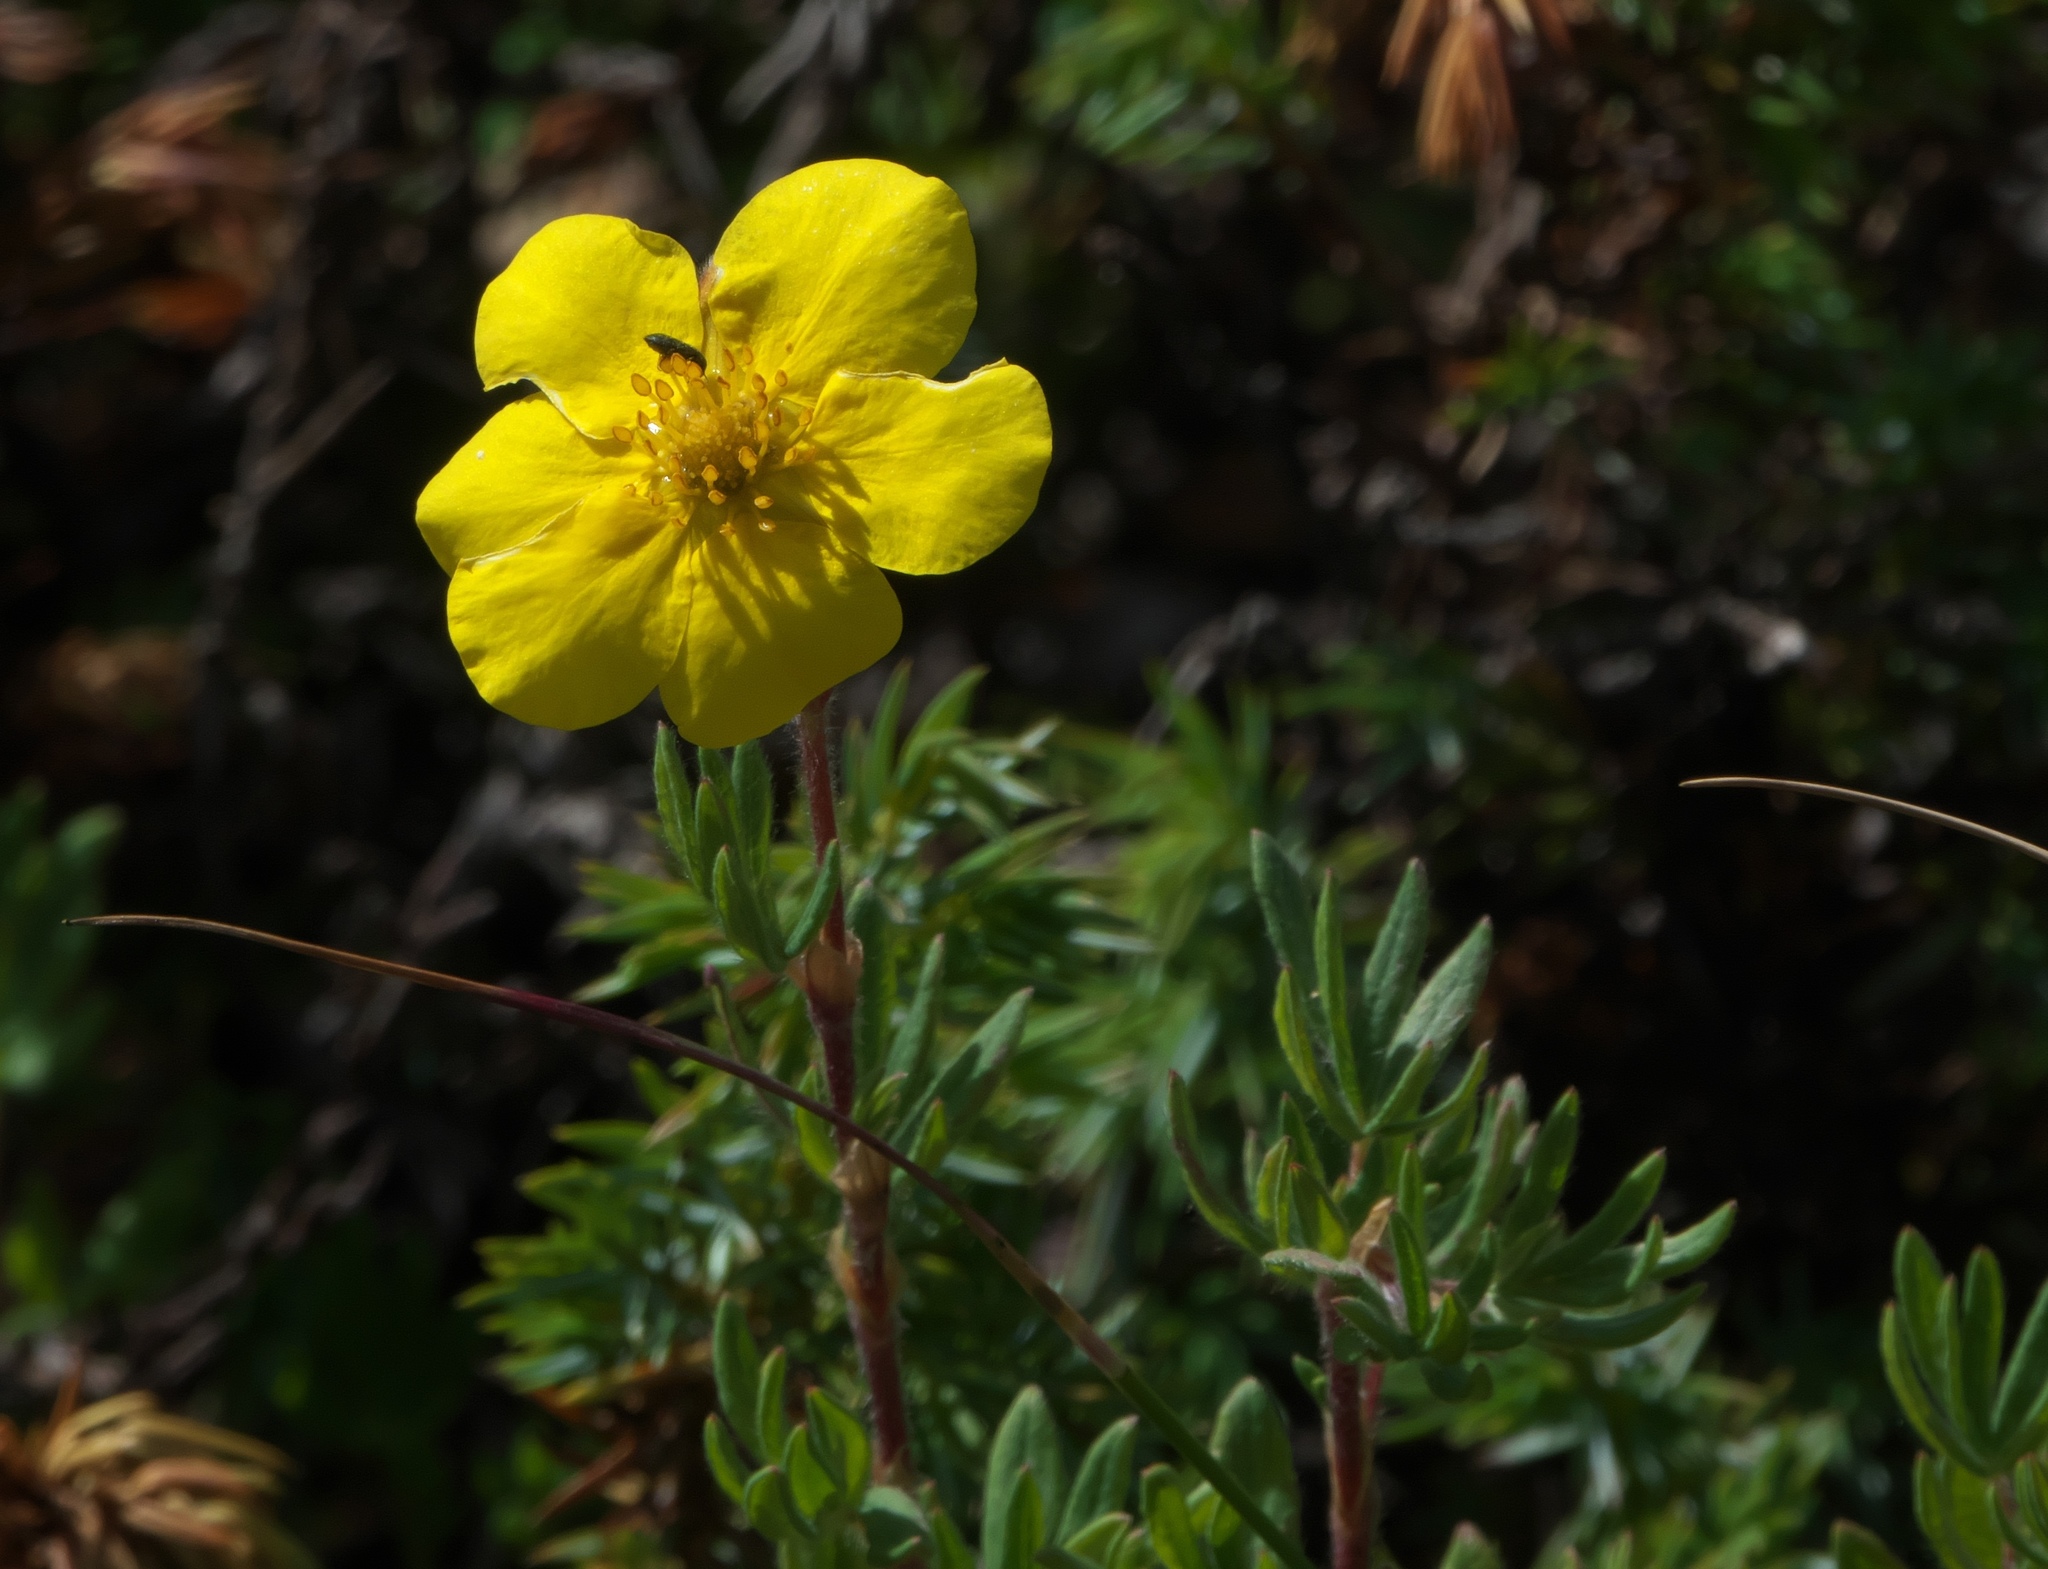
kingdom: Plantae
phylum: Tracheophyta
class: Magnoliopsida
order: Rosales
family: Rosaceae
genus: Dasiphora
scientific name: Dasiphora fruticosa
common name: Shrubby cinquefoil
